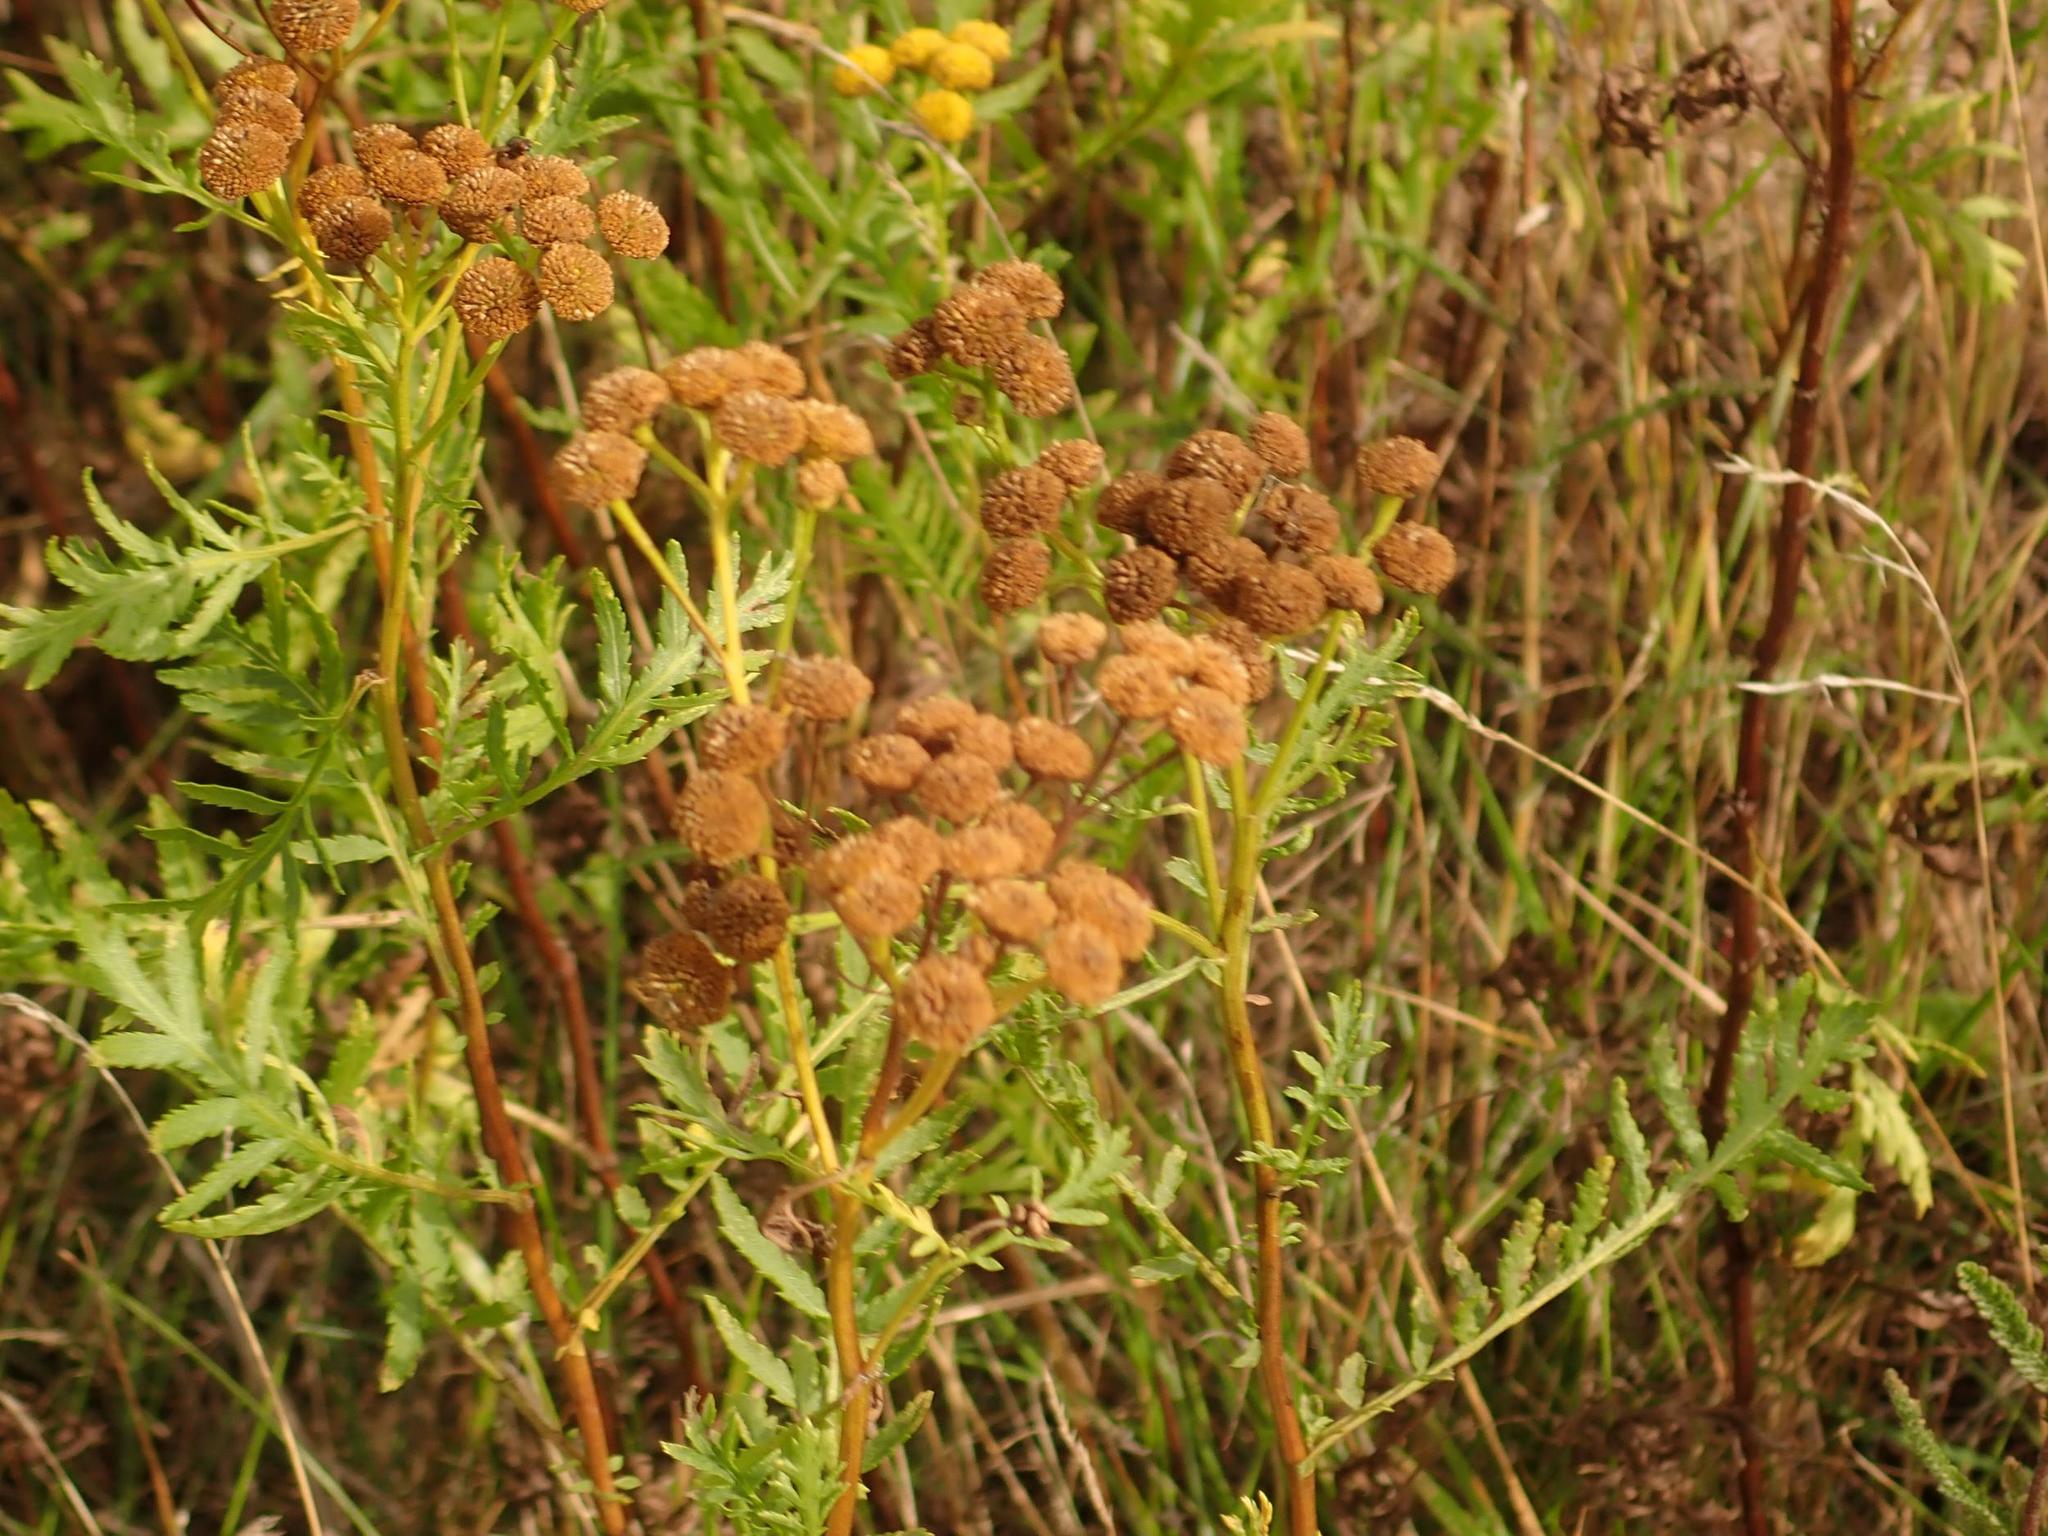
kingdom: Plantae
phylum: Tracheophyta
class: Magnoliopsida
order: Asterales
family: Asteraceae
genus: Tanacetum
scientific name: Tanacetum vulgare
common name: Common tansy
